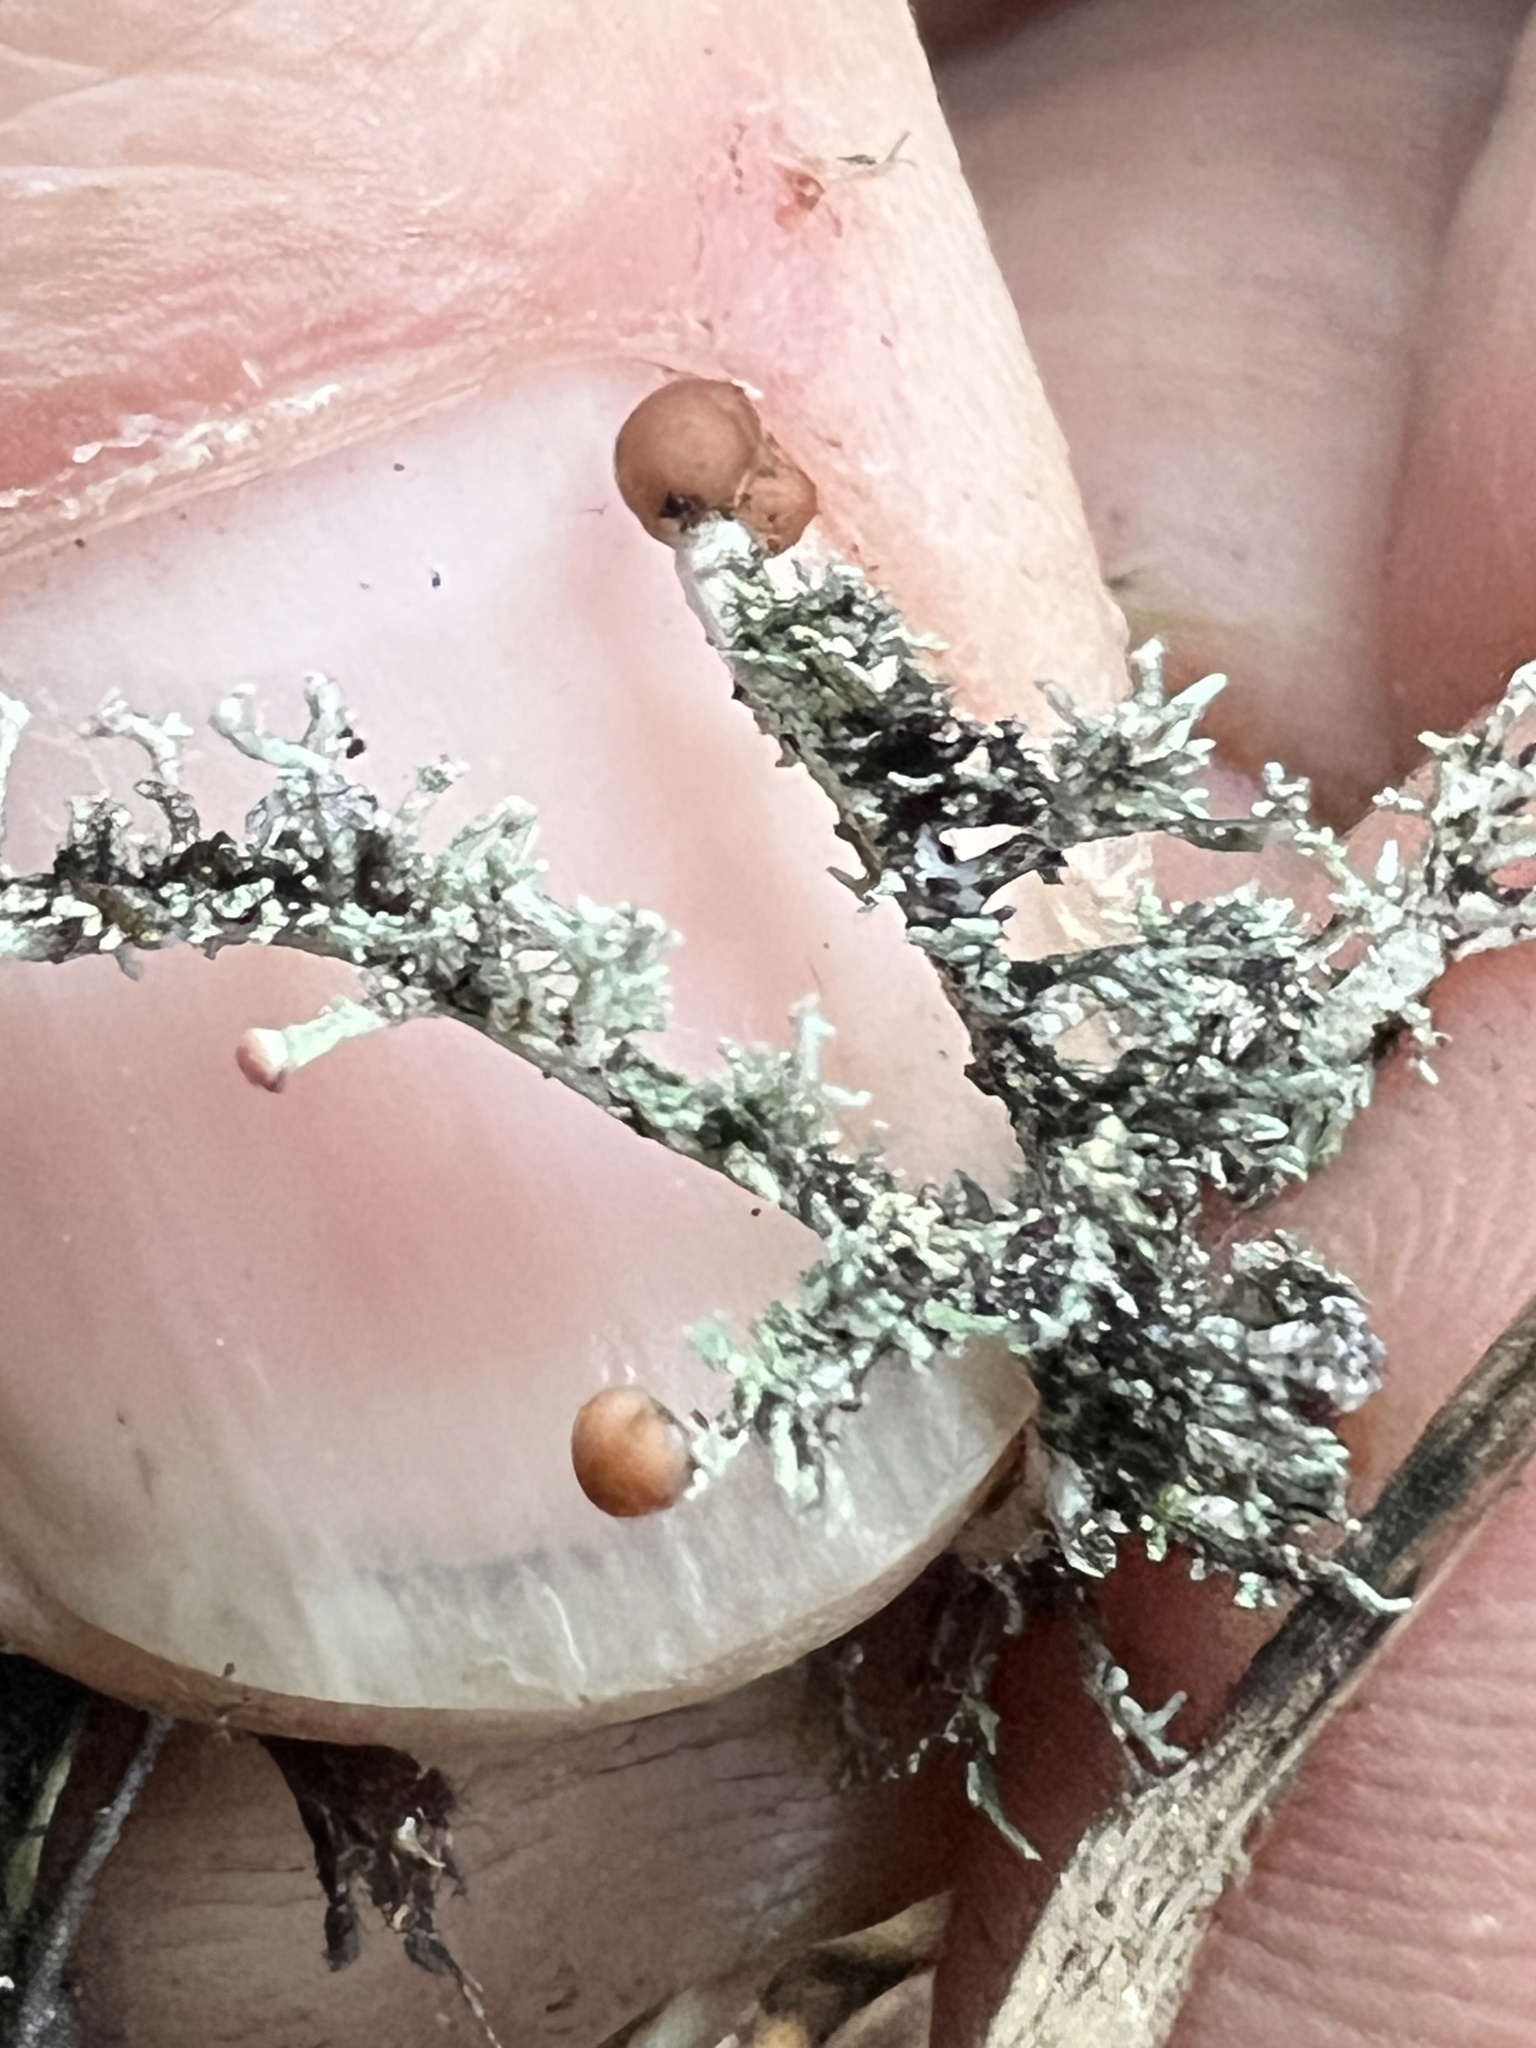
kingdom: Fungi
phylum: Ascomycota
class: Lecanoromycetes
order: Lecanorales
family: Stereocaulaceae
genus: Stereocaulon
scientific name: Stereocaulon ramulosum
